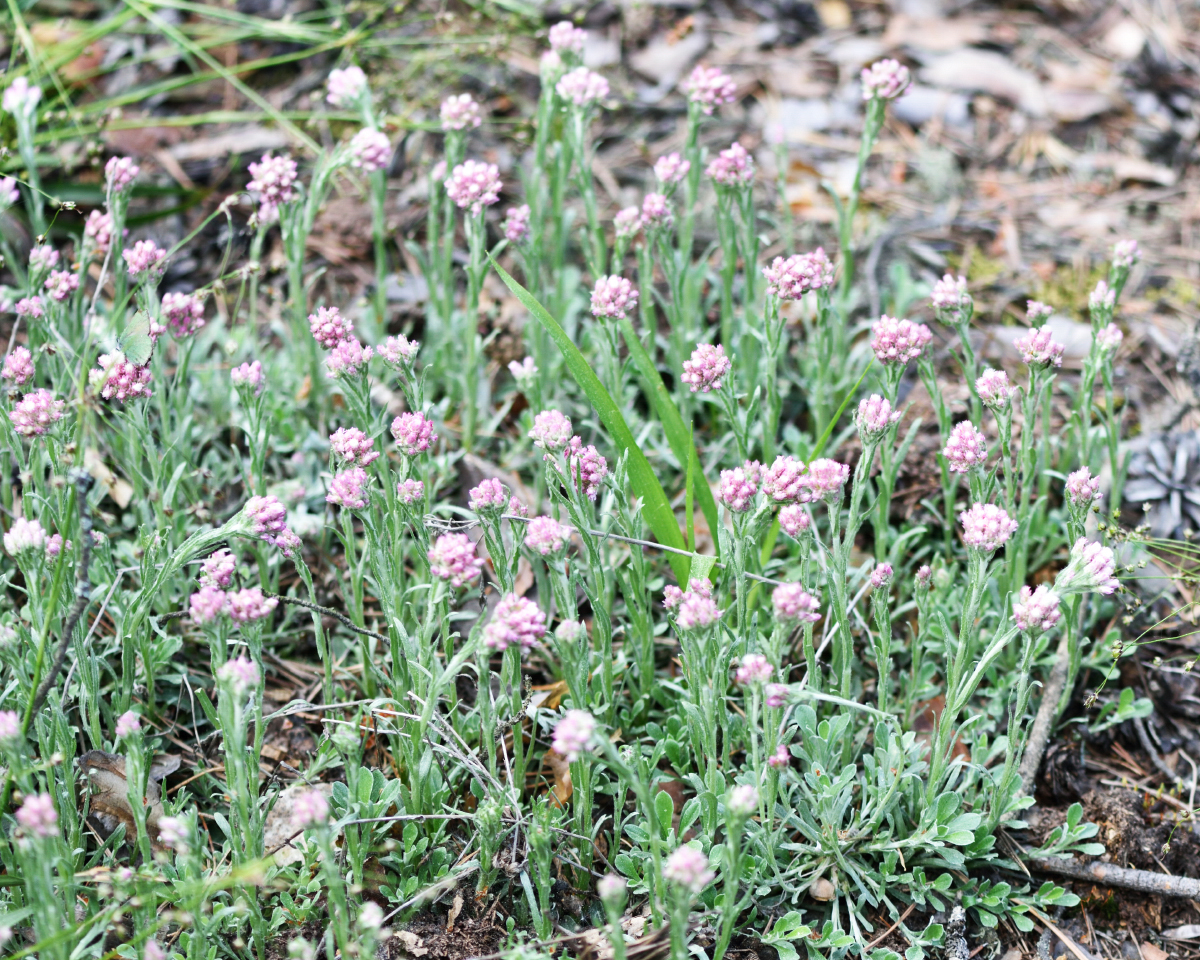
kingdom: Plantae
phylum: Tracheophyta
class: Magnoliopsida
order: Asterales
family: Asteraceae
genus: Antennaria
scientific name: Antennaria dioica
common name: Mountain everlasting
